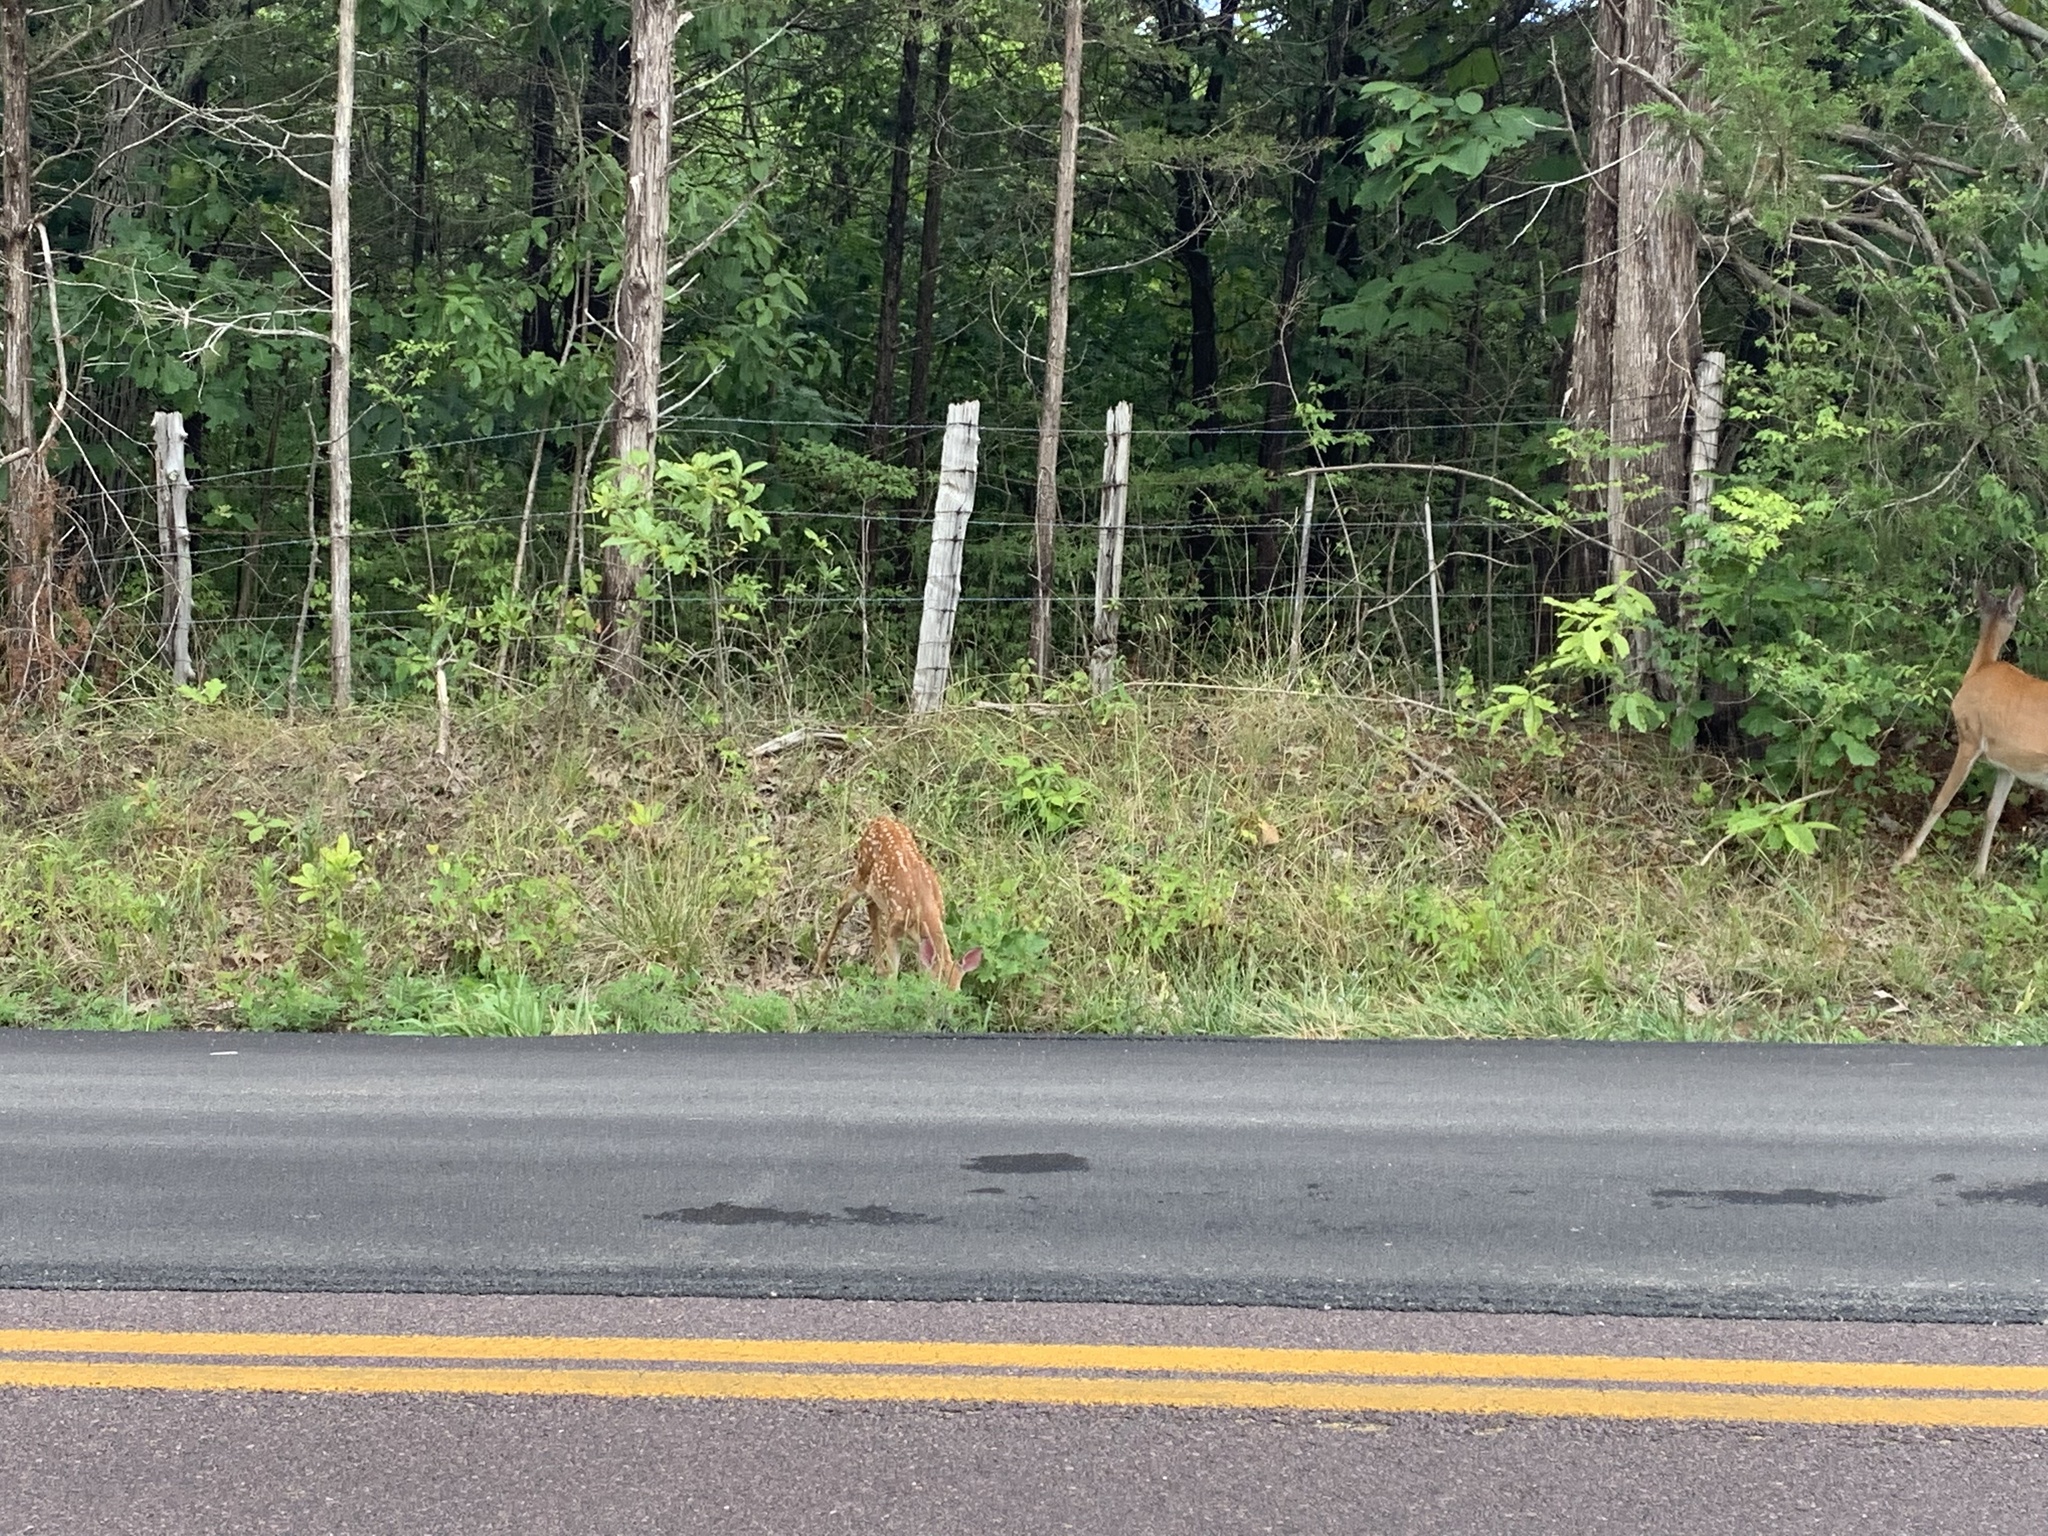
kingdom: Animalia
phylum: Chordata
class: Mammalia
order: Artiodactyla
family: Cervidae
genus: Odocoileus
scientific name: Odocoileus virginianus
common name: White-tailed deer
